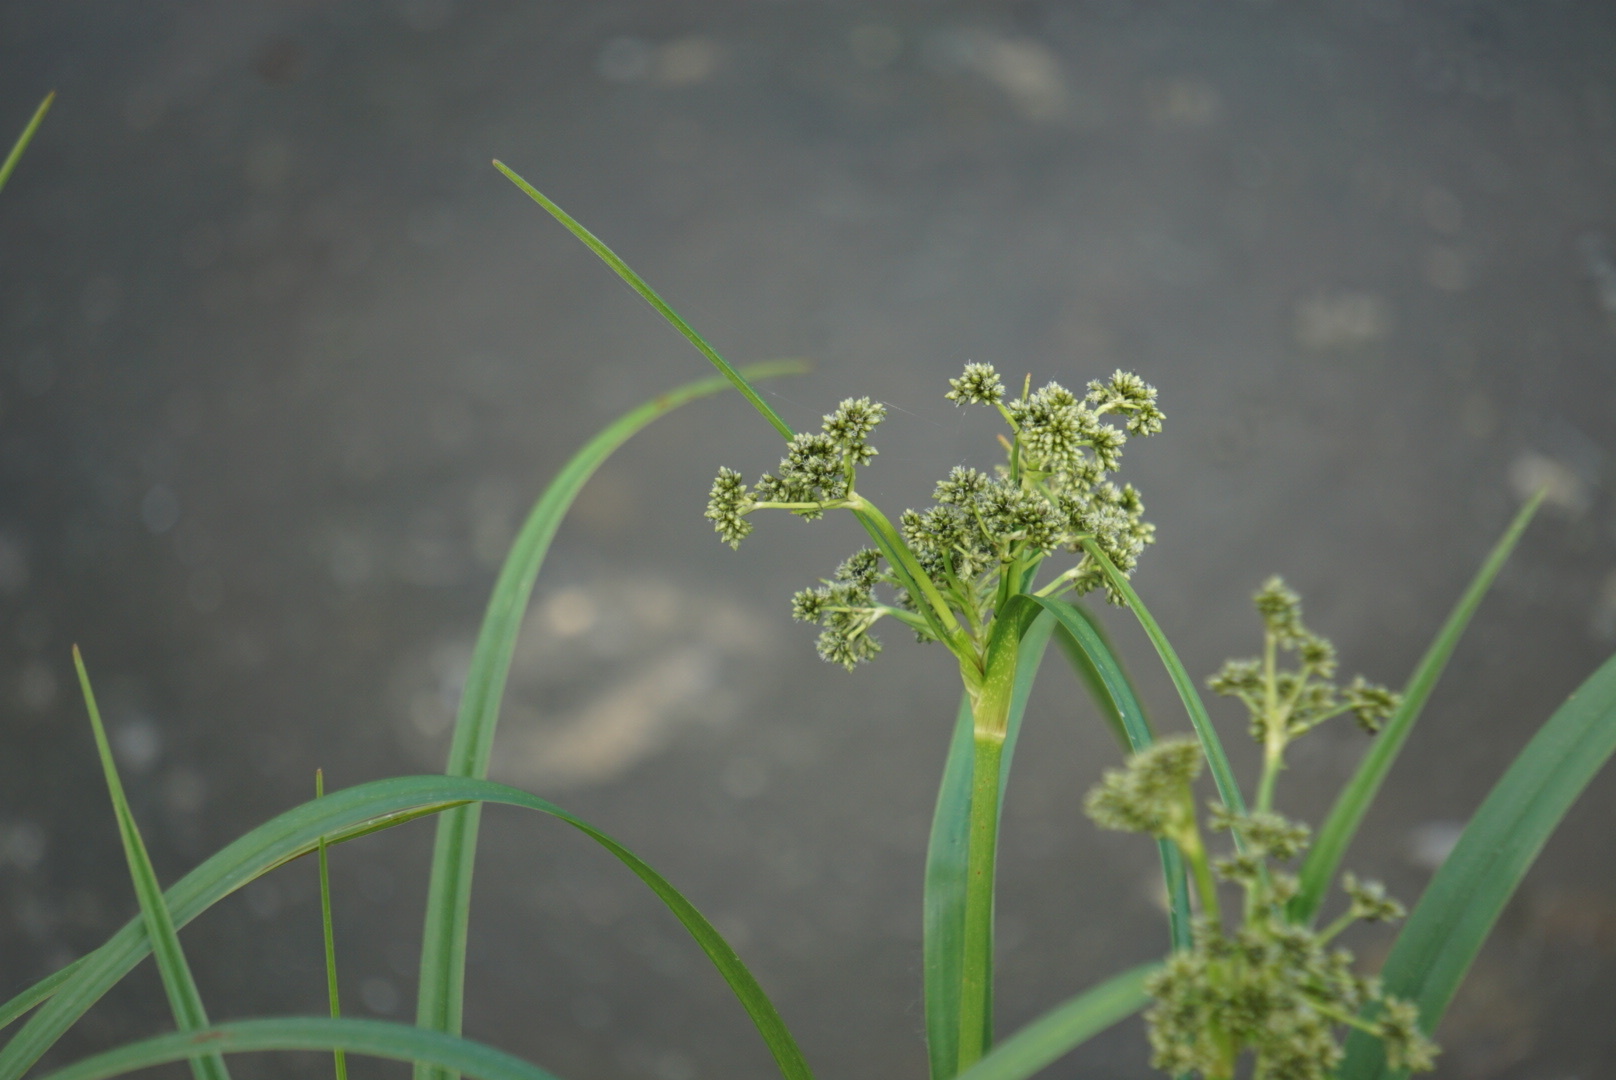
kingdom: Plantae
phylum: Tracheophyta
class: Liliopsida
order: Poales
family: Cyperaceae
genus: Scirpus
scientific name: Scirpus microcarpus
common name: Panicled bulrush
